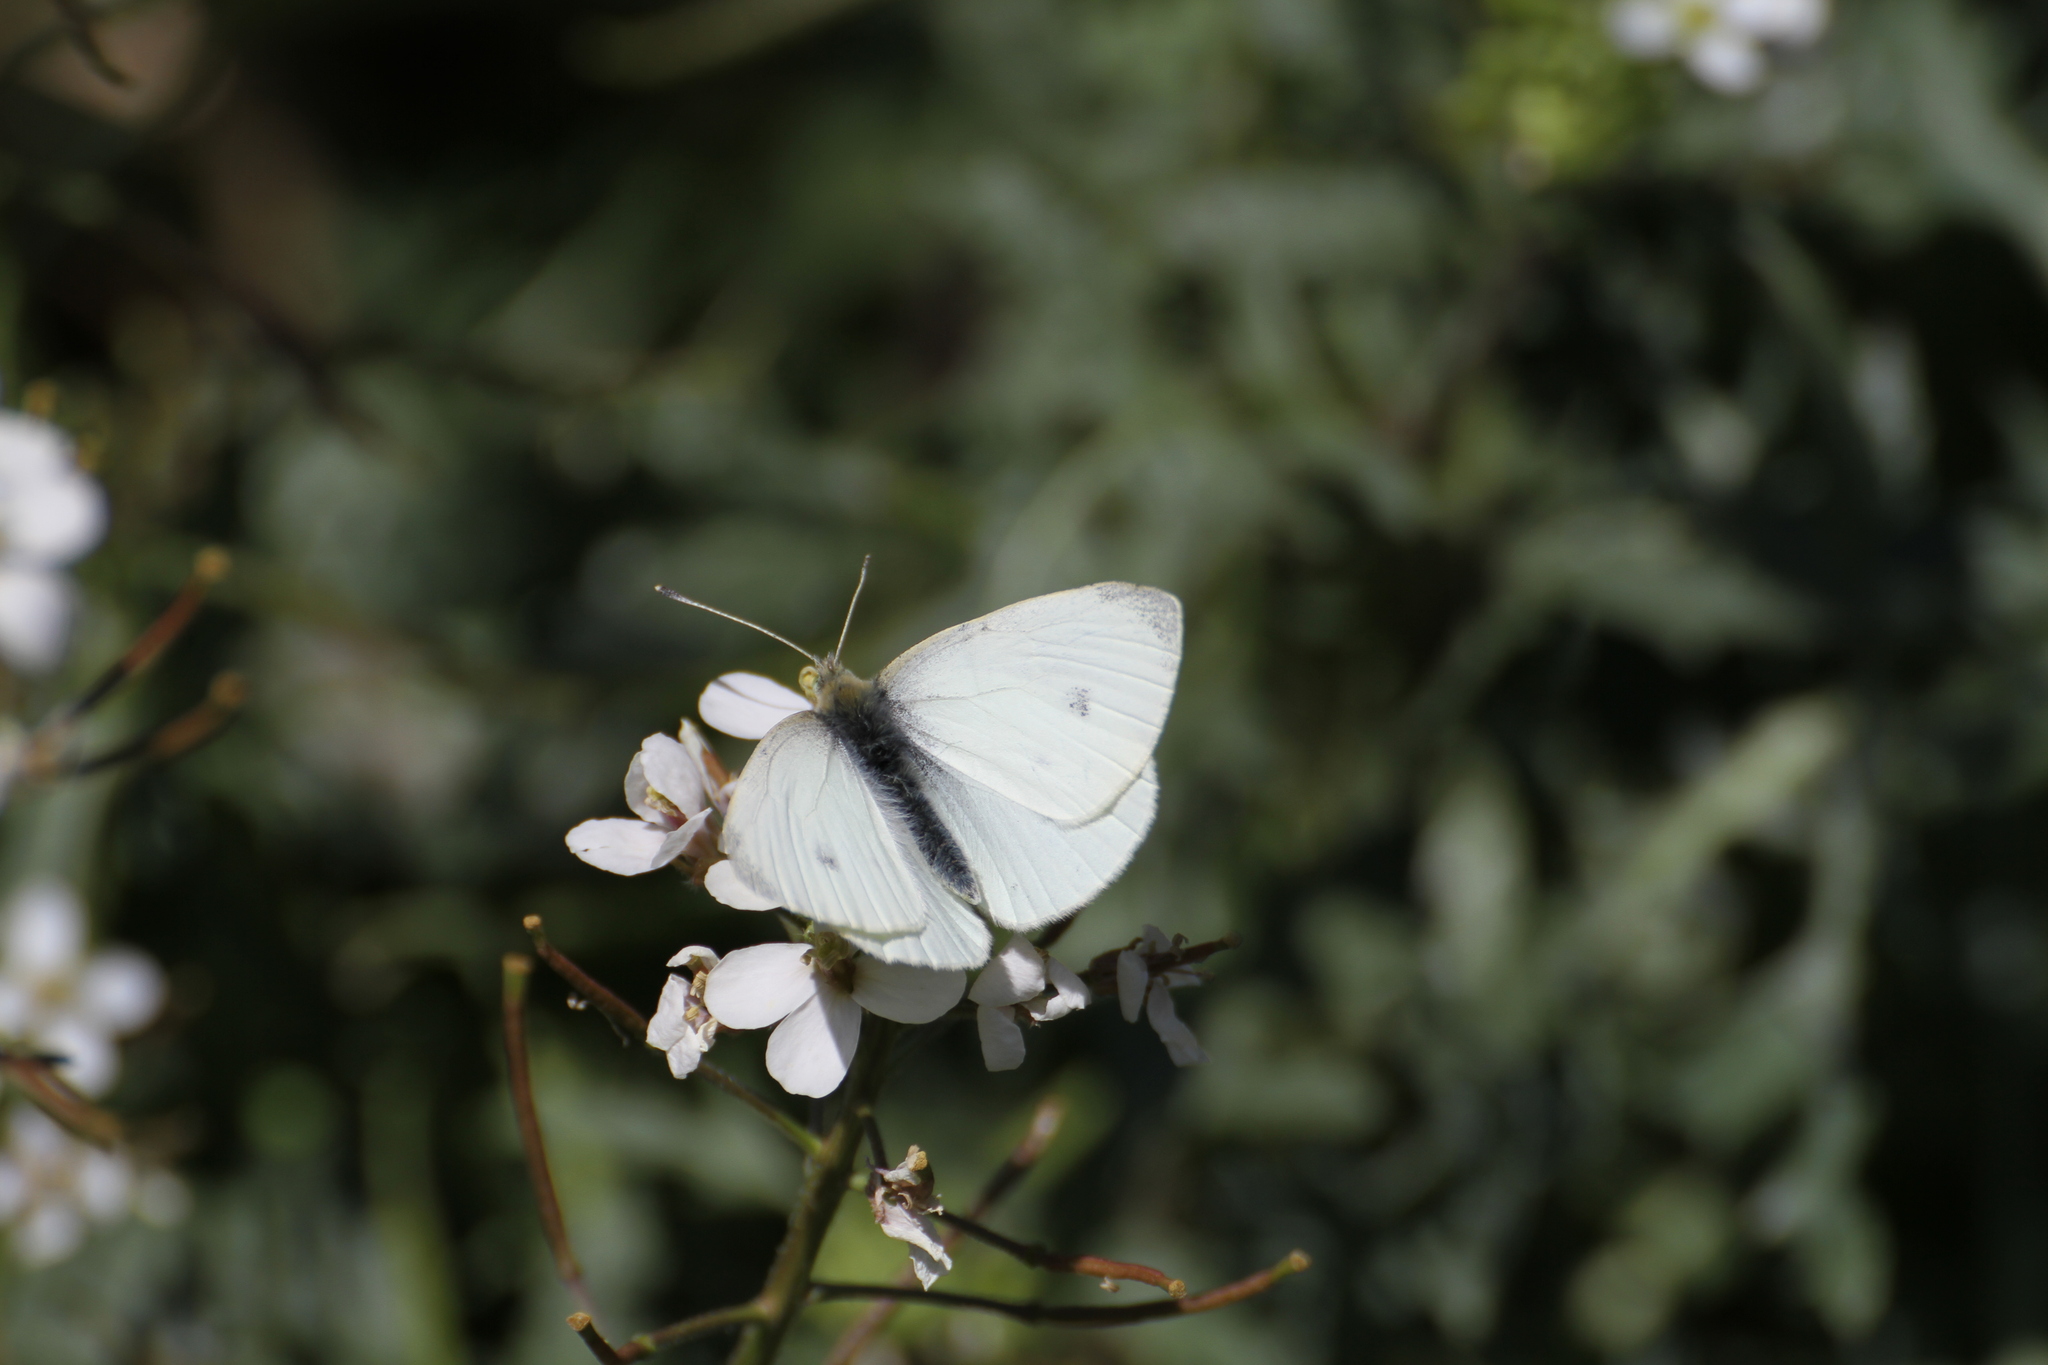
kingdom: Animalia
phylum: Arthropoda
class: Insecta
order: Lepidoptera
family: Pieridae
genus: Pieris
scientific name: Pieris rapae
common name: Small white
